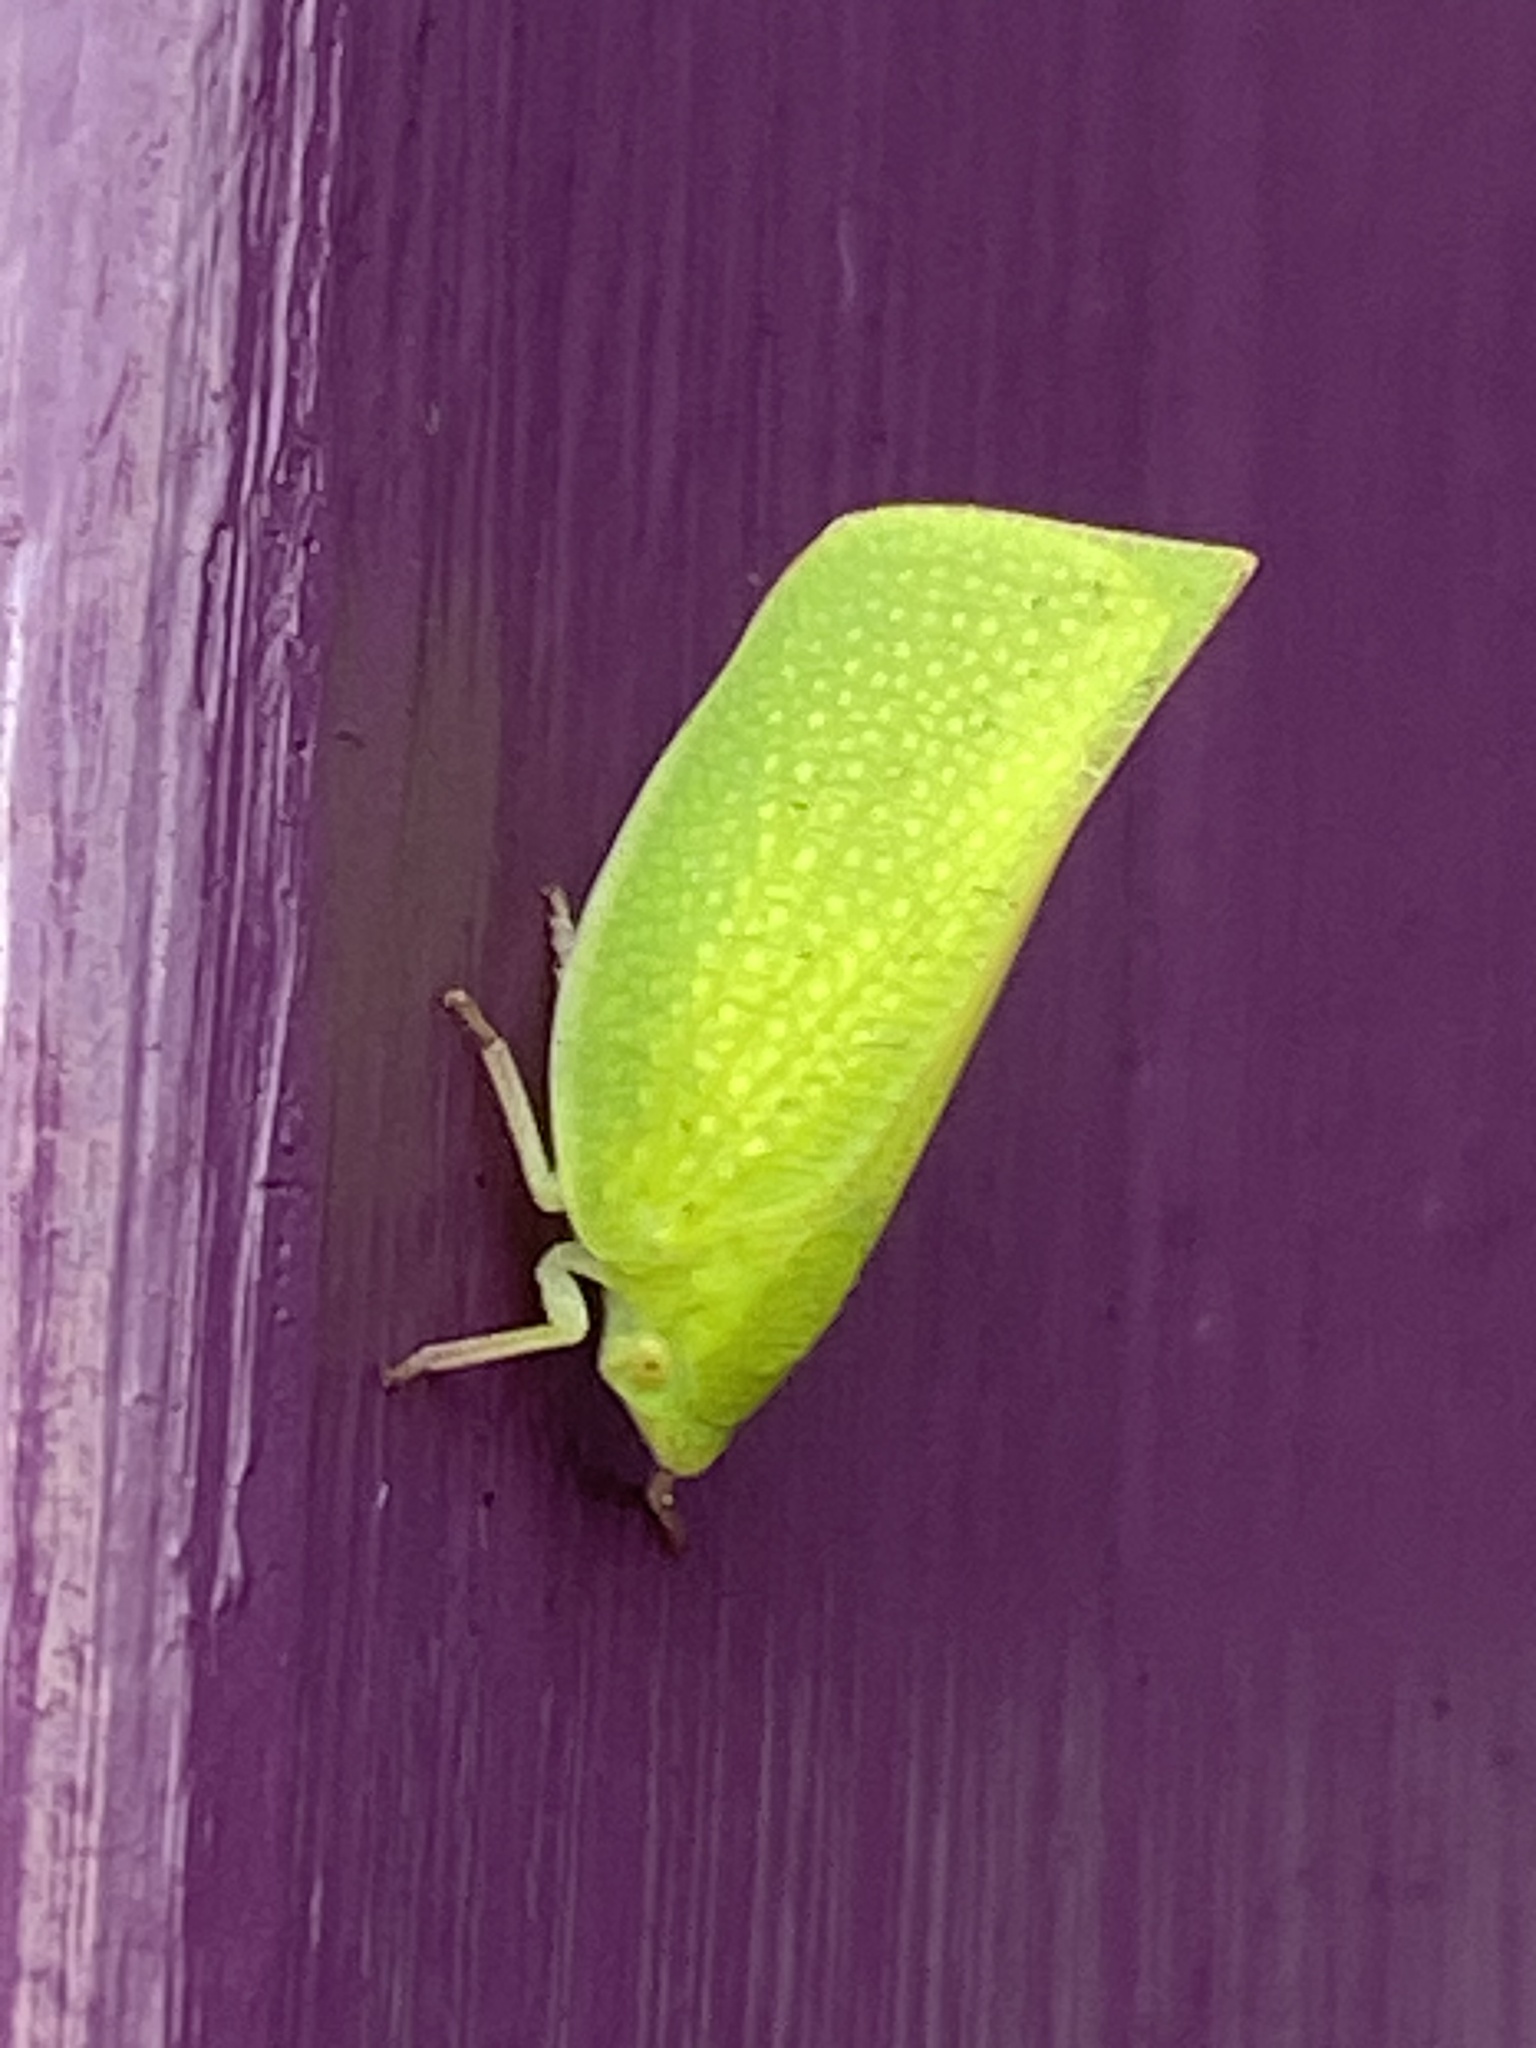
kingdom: Animalia
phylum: Arthropoda
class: Insecta
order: Hemiptera
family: Flatidae
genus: Siphanta
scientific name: Siphanta acuta
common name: Torpedo bug
